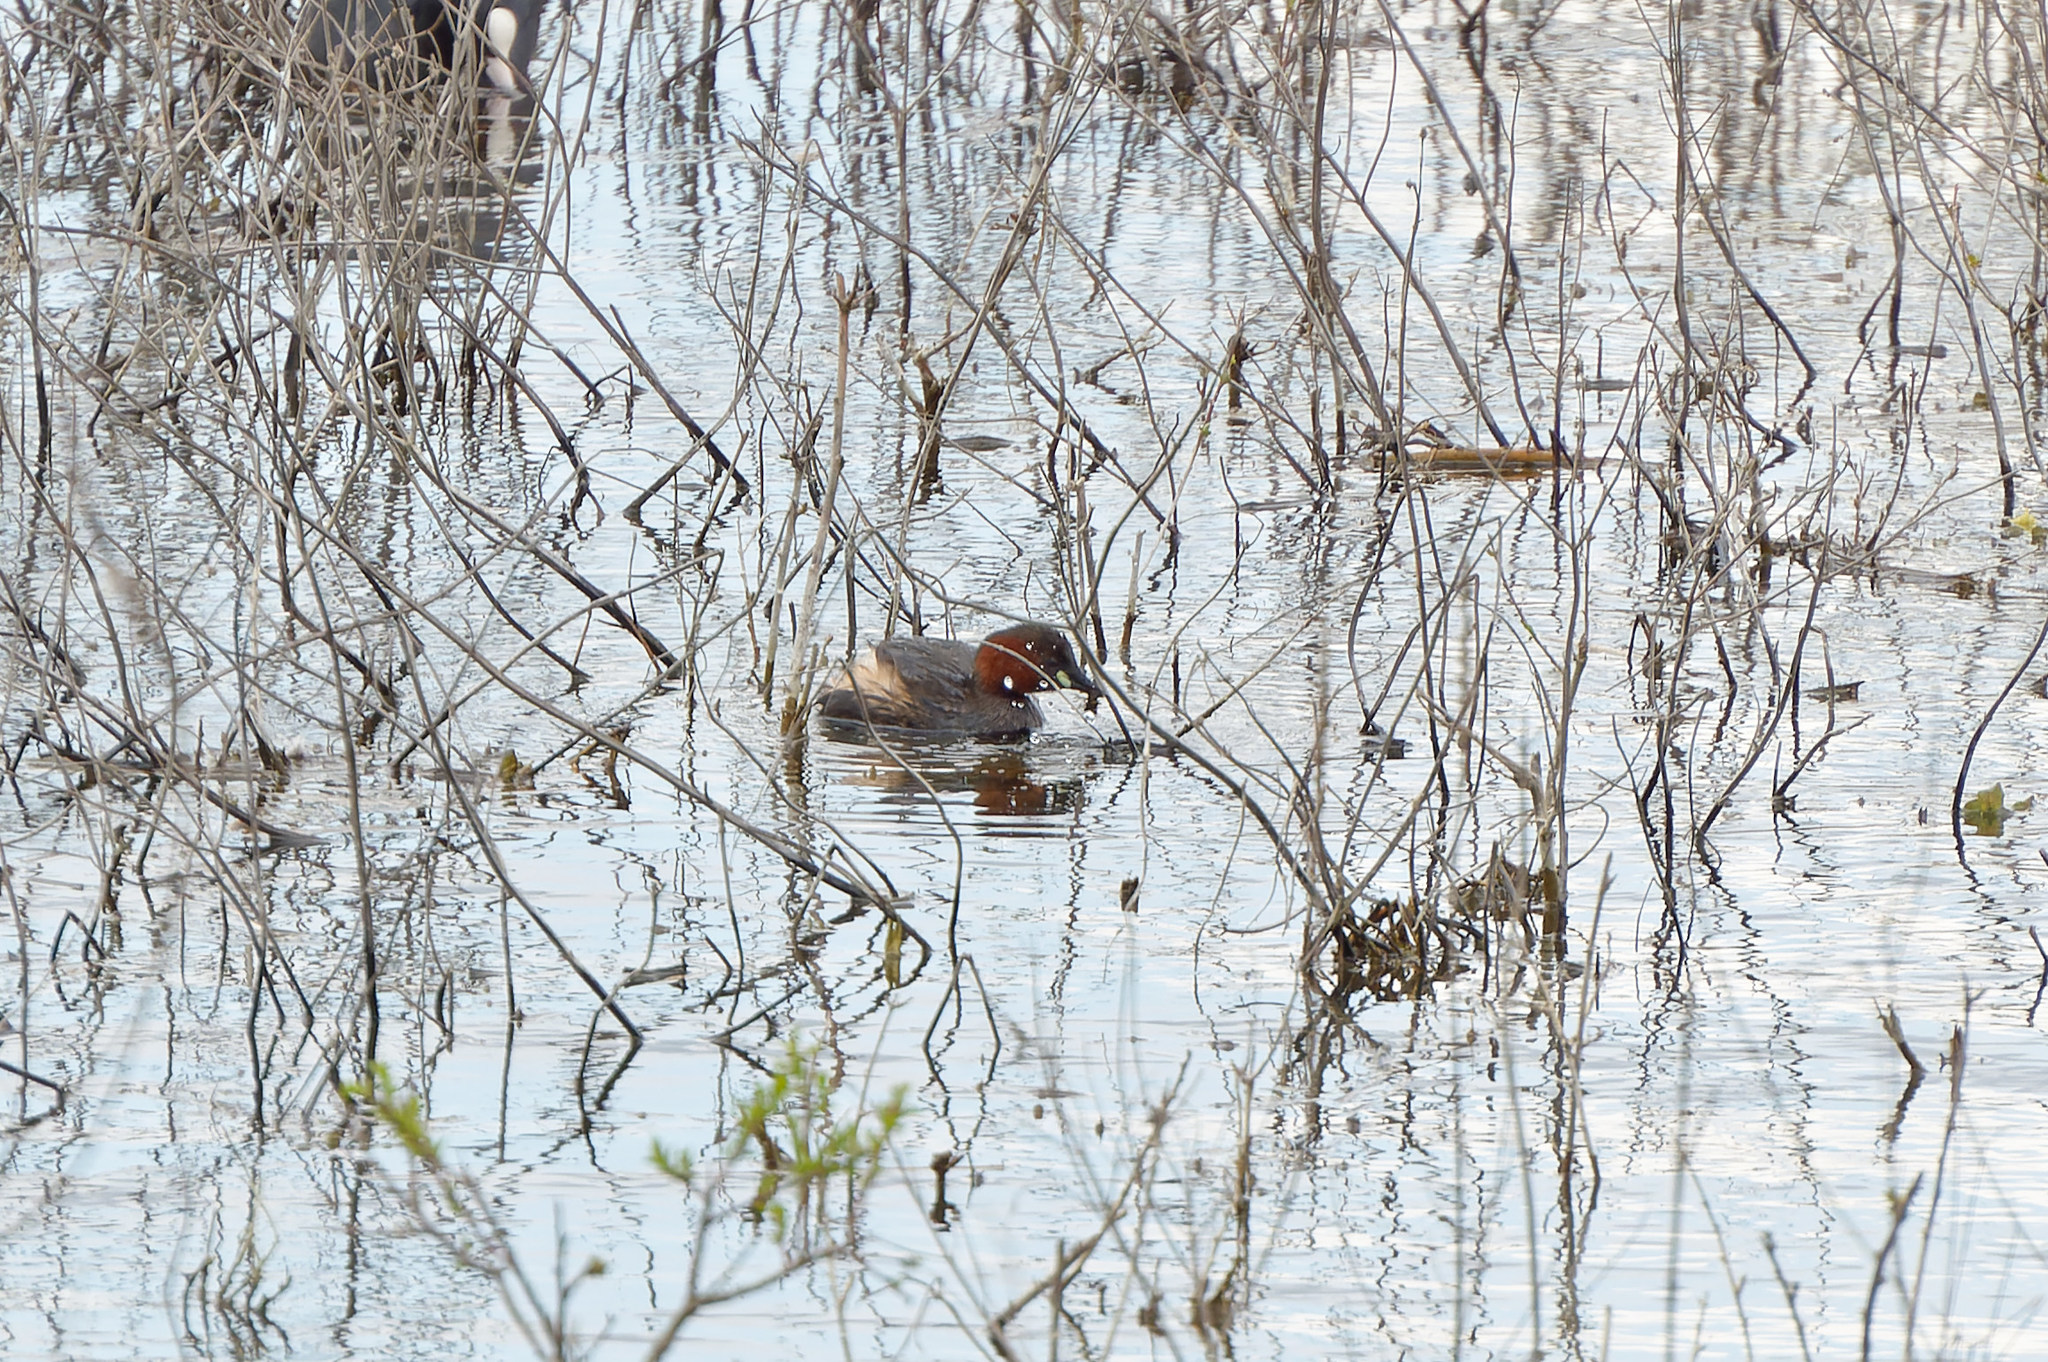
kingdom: Animalia
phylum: Chordata
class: Aves
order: Podicipediformes
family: Podicipedidae
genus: Tachybaptus
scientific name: Tachybaptus ruficollis
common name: Little grebe
